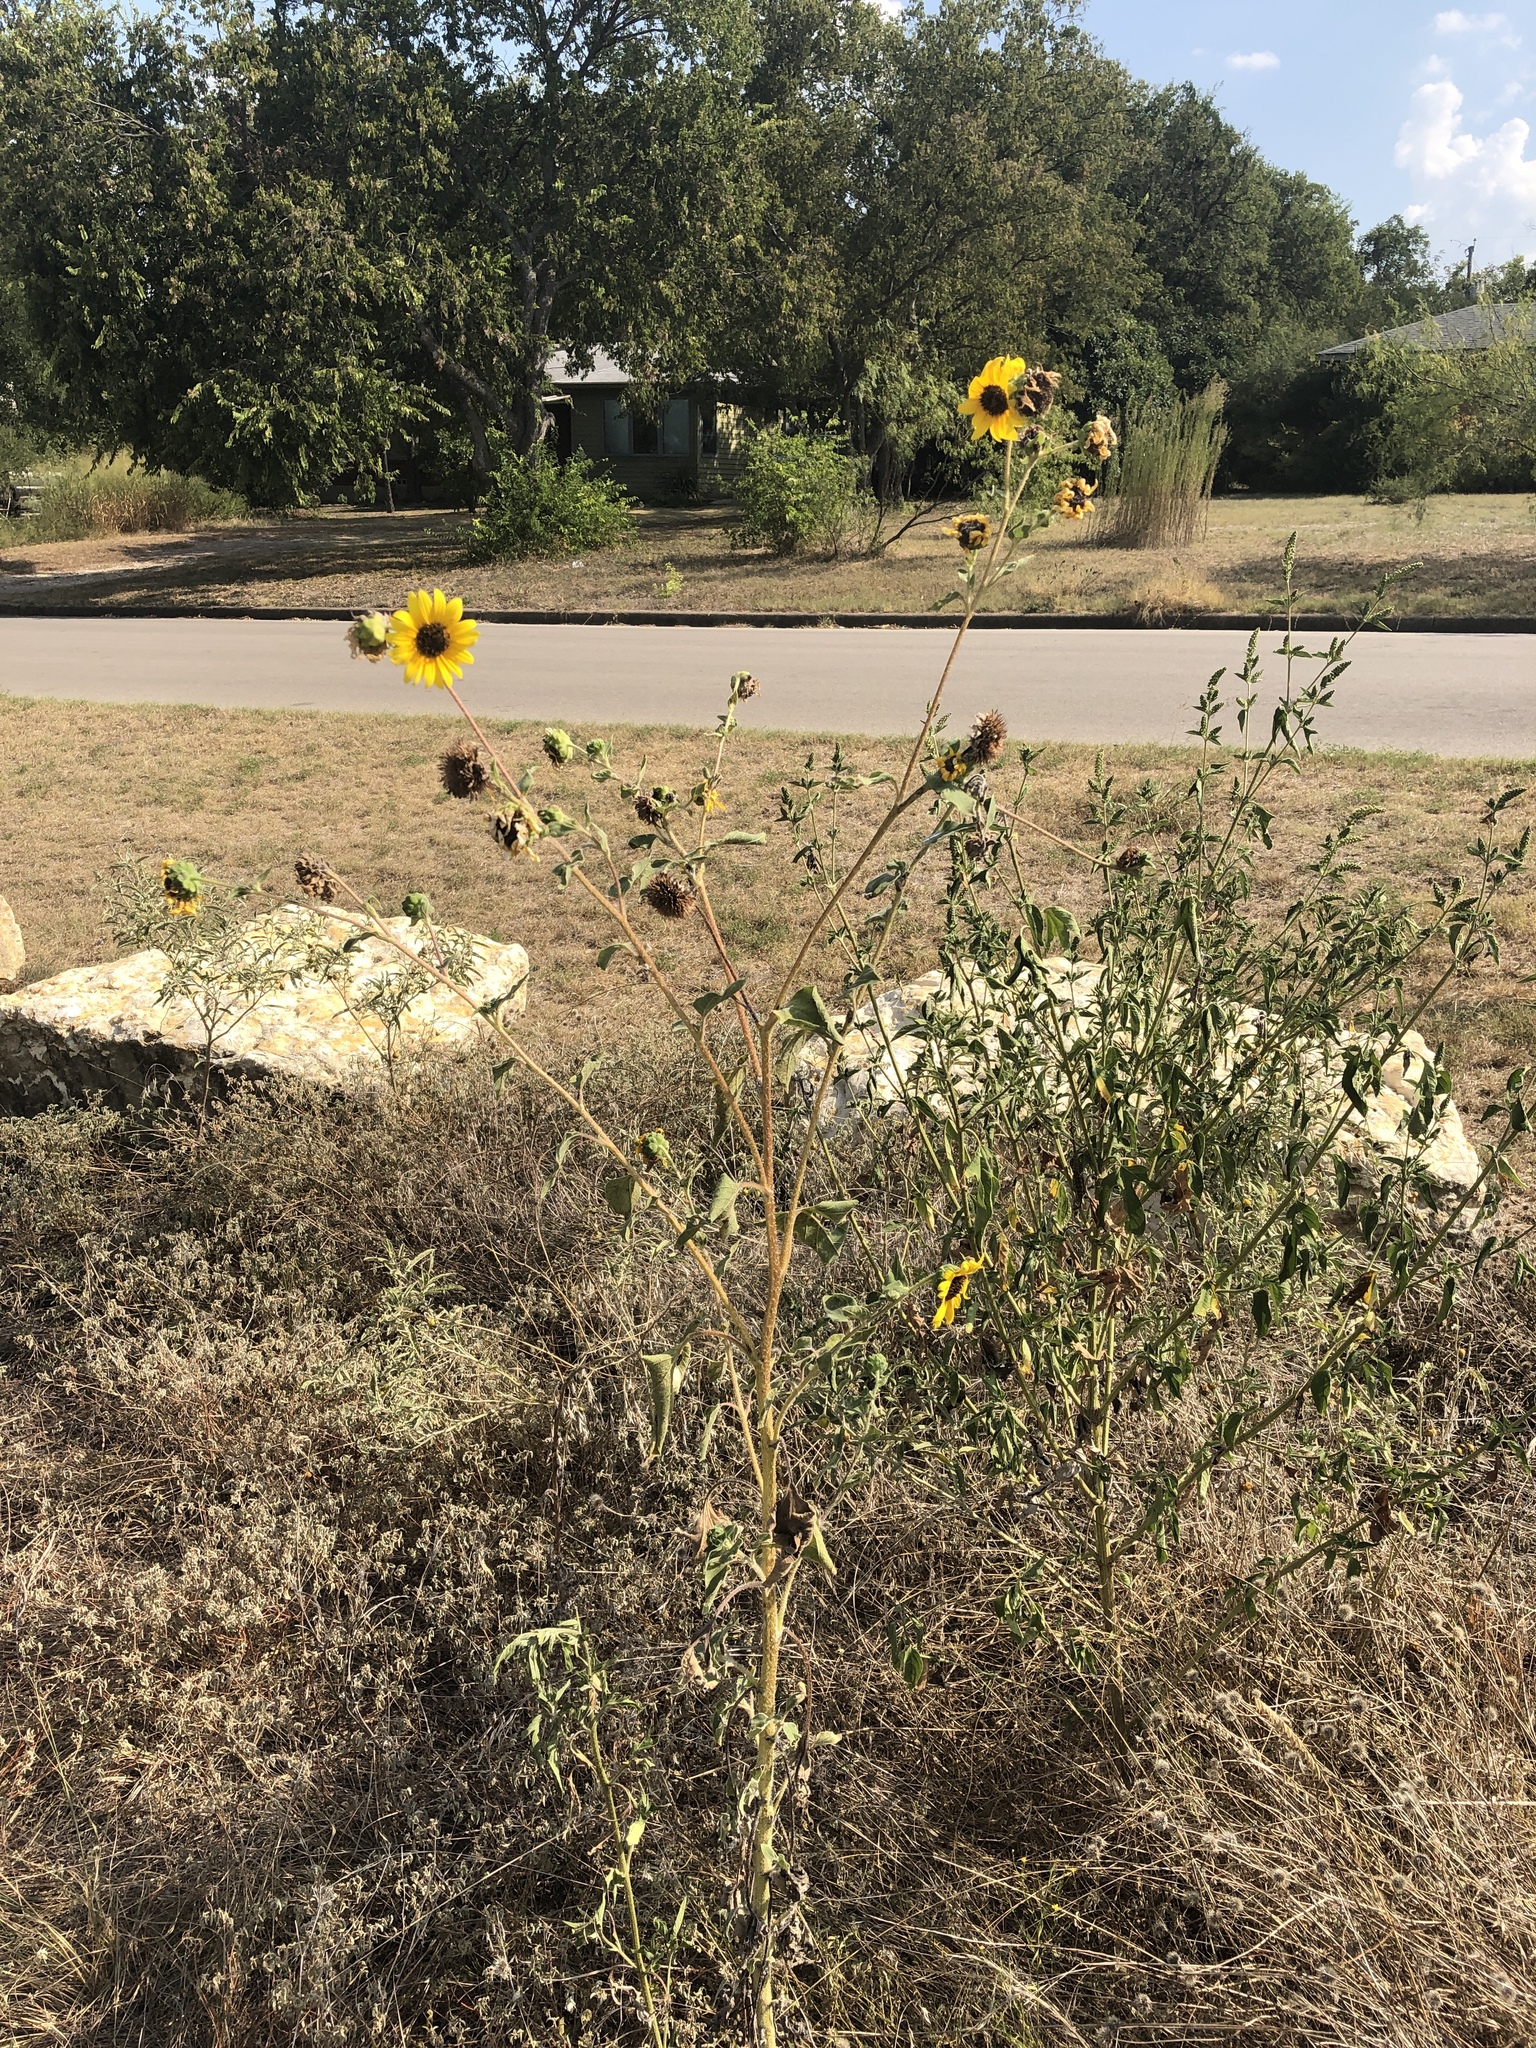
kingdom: Plantae
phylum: Tracheophyta
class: Magnoliopsida
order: Asterales
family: Asteraceae
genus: Helianthus
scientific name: Helianthus annuus
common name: Sunflower
